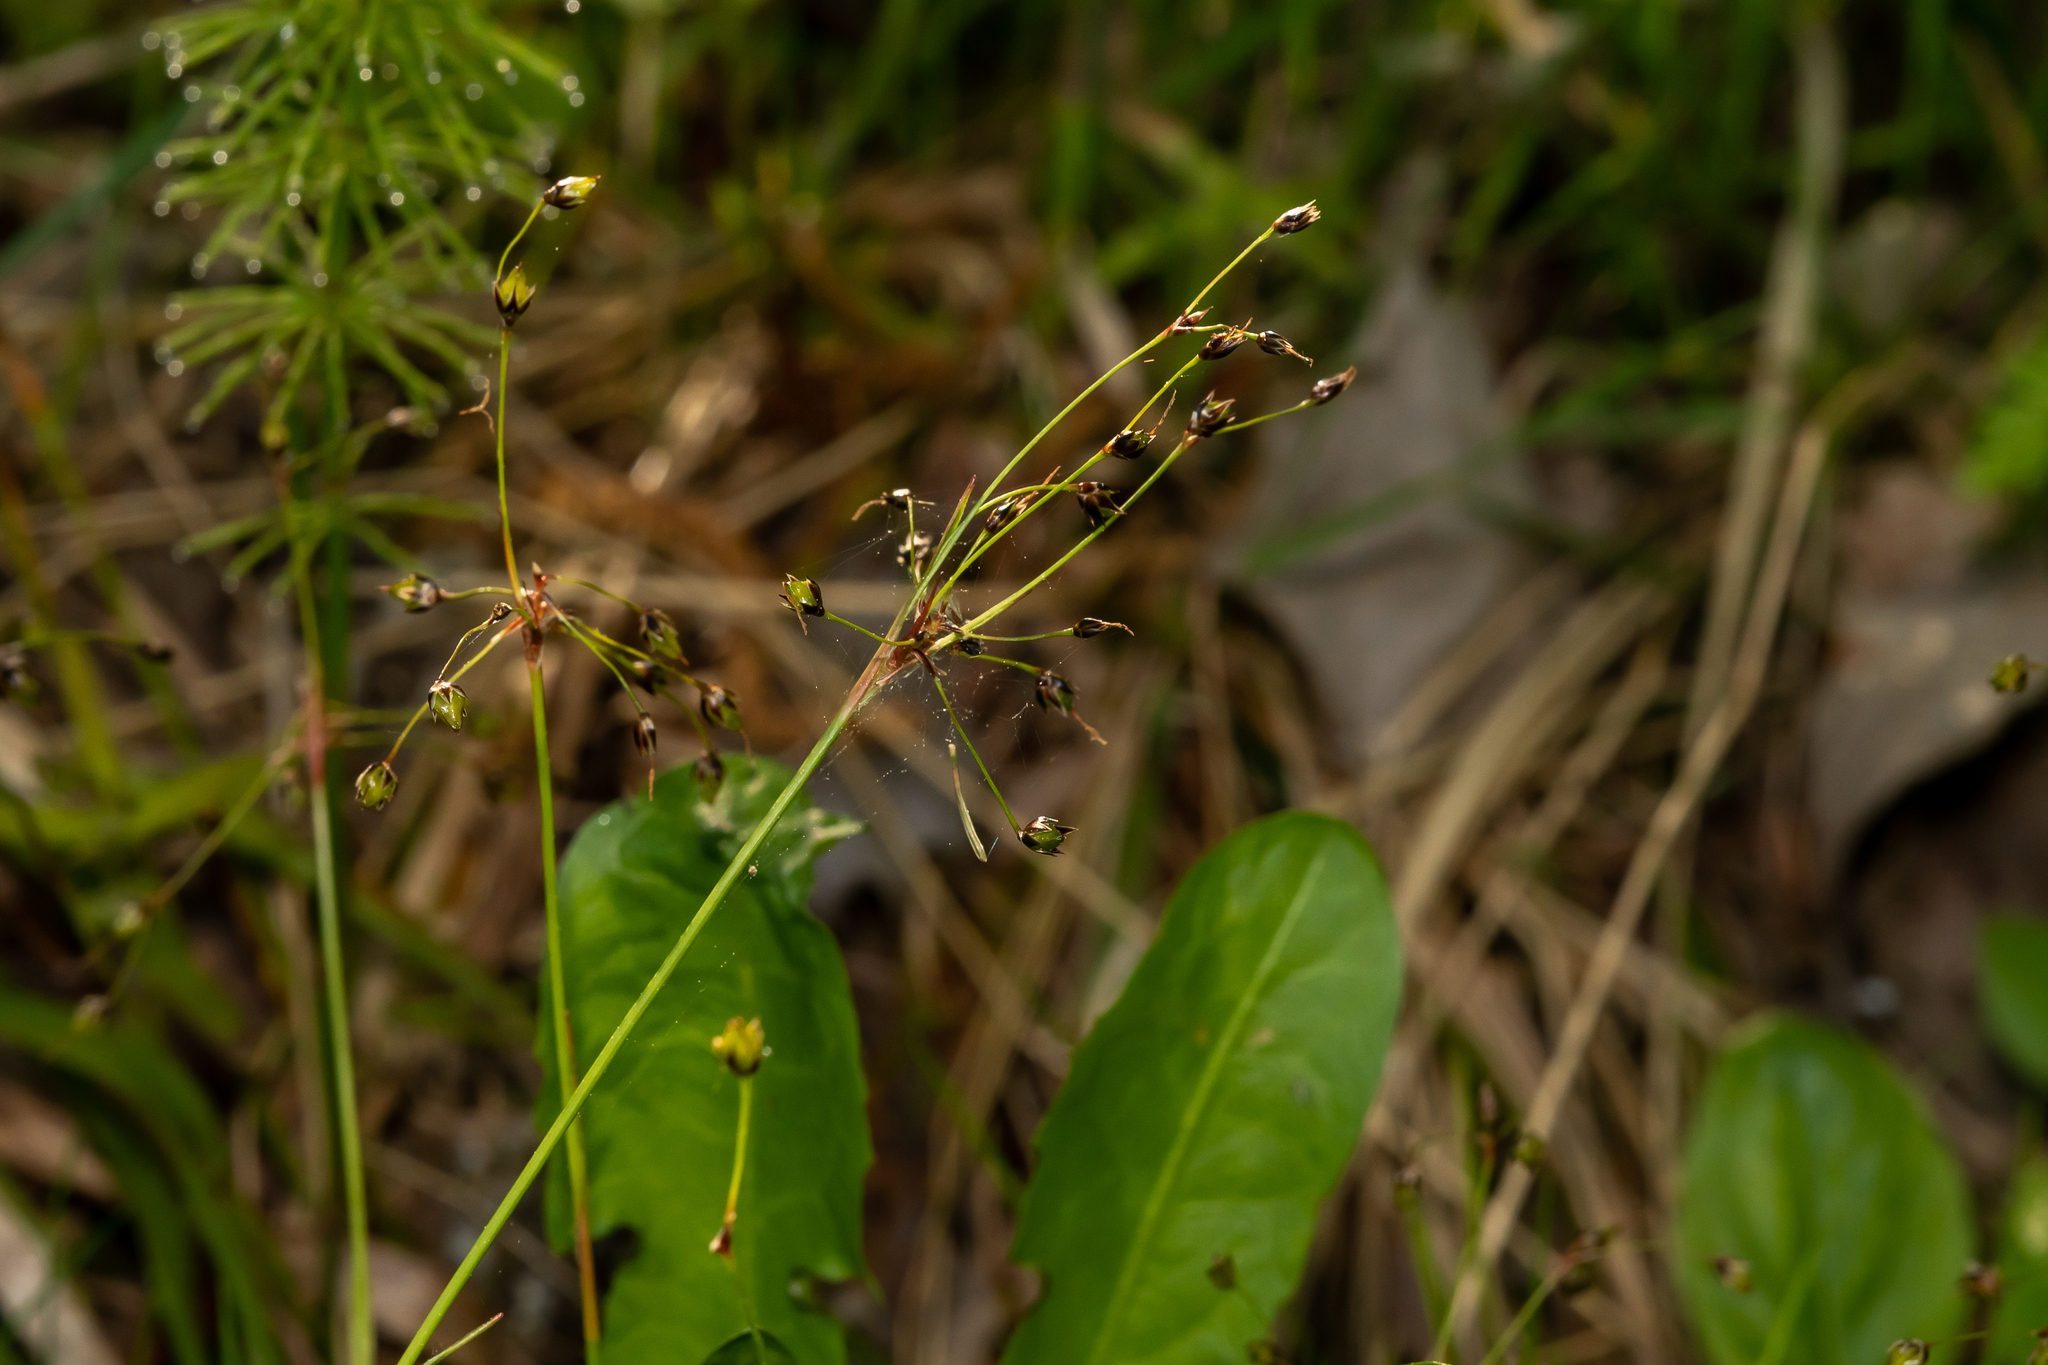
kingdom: Plantae
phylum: Tracheophyta
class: Liliopsida
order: Poales
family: Juncaceae
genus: Luzula
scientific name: Luzula pilosa
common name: Hairy wood-rush
